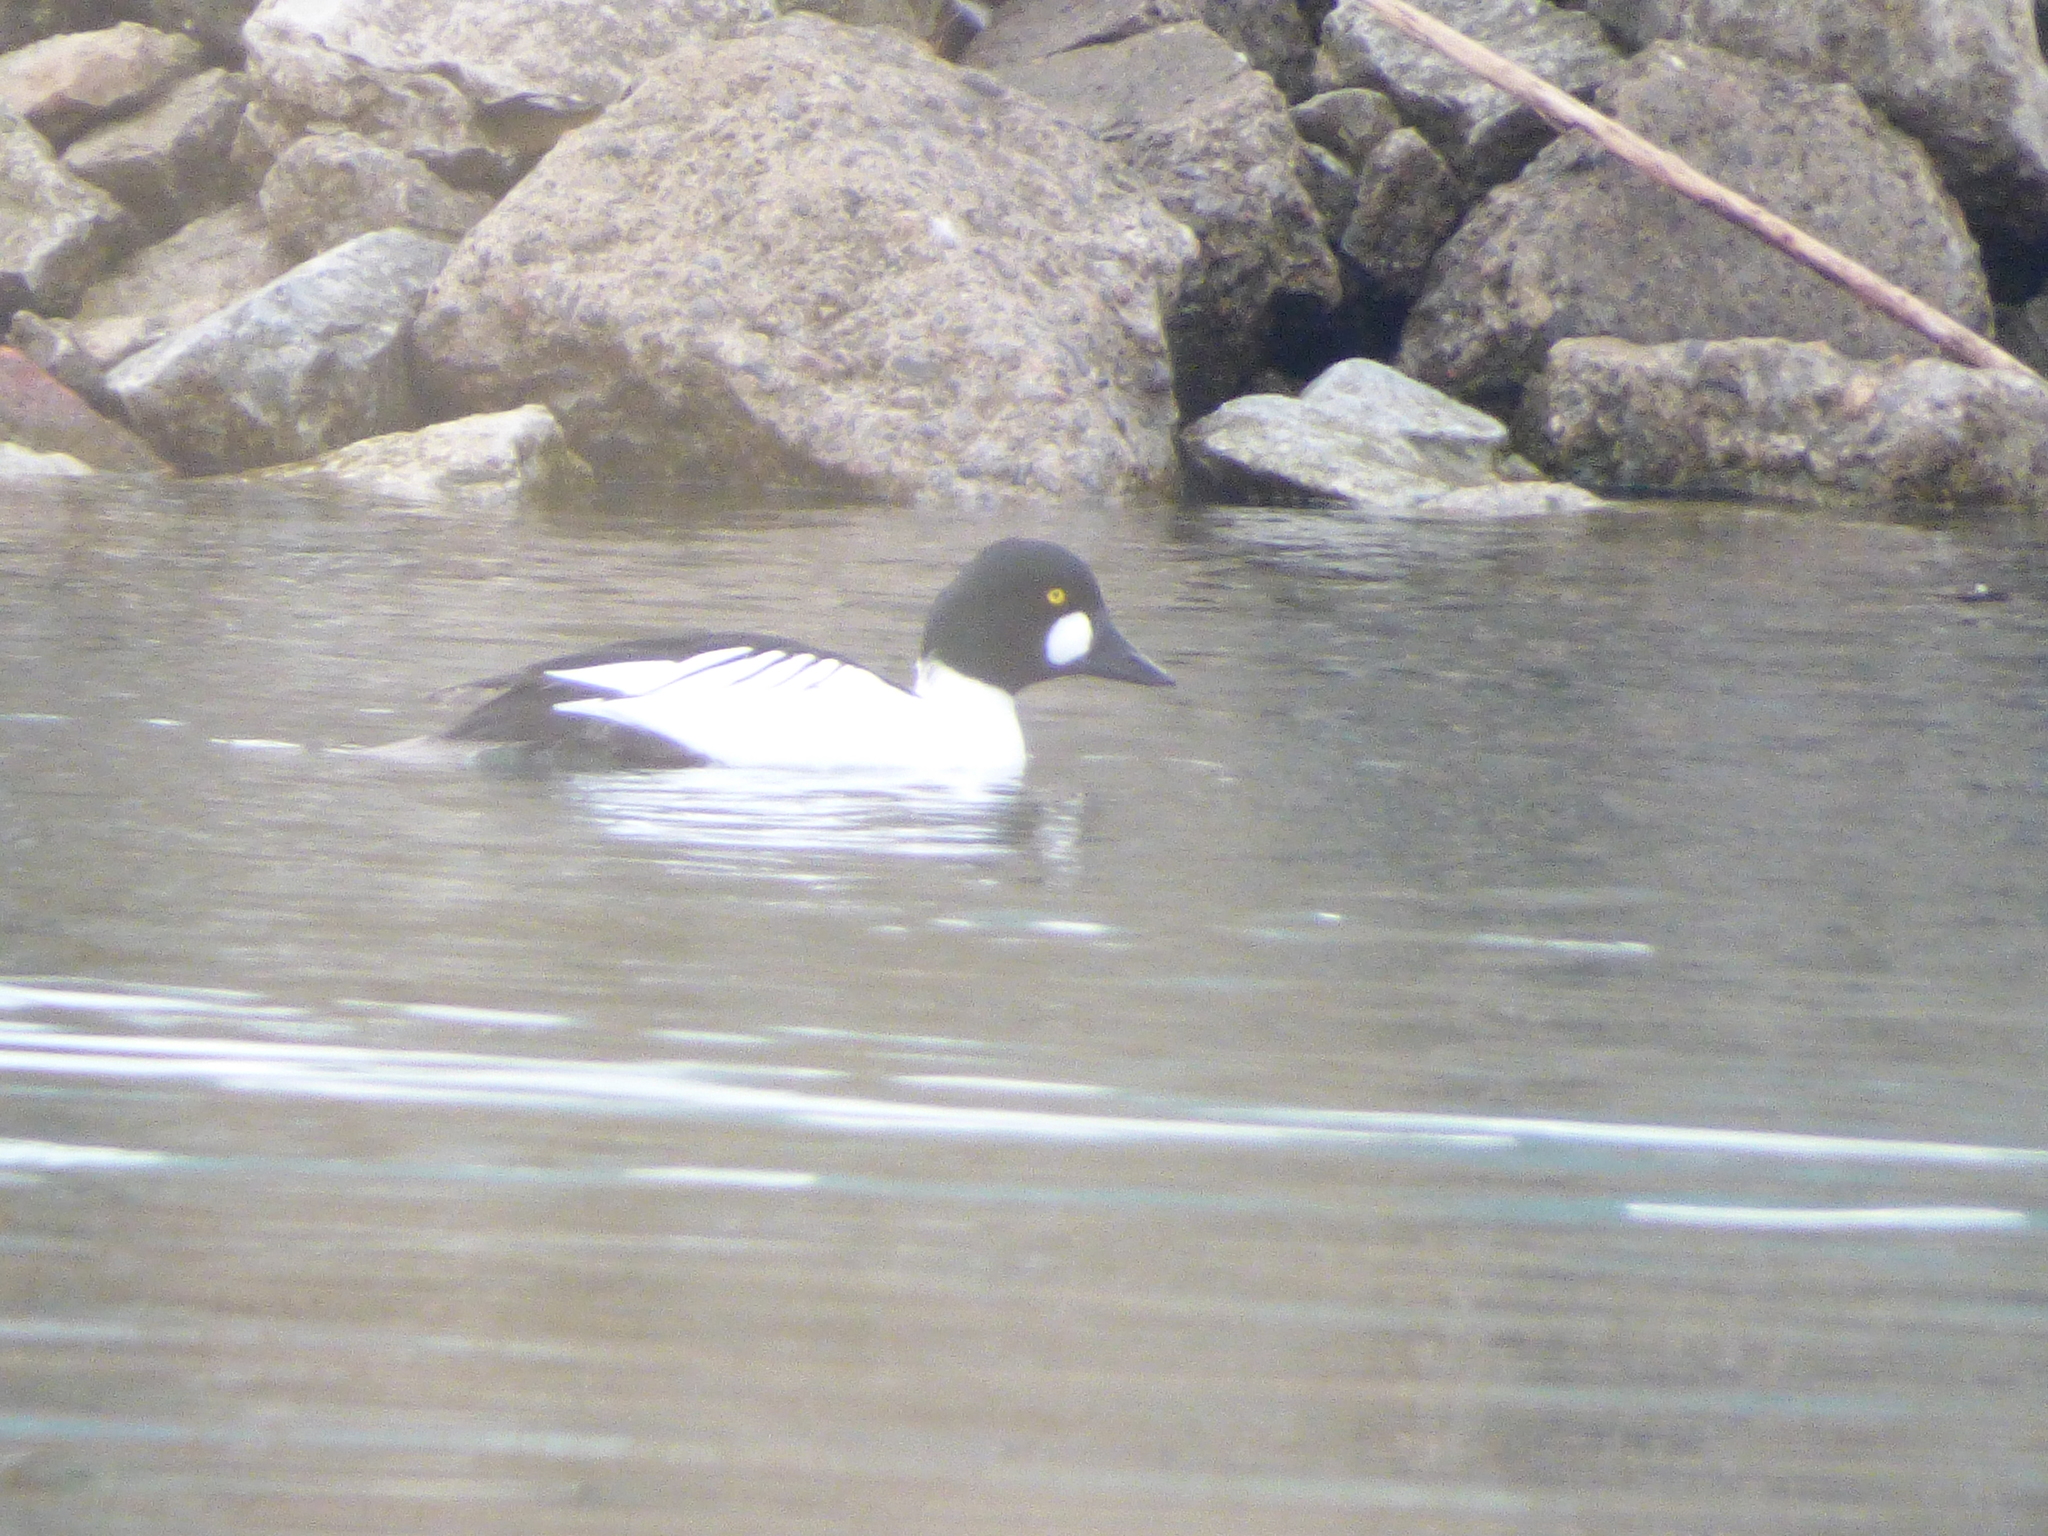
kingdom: Animalia
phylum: Chordata
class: Aves
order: Anseriformes
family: Anatidae
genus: Bucephala
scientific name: Bucephala clangula
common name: Common goldeneye
